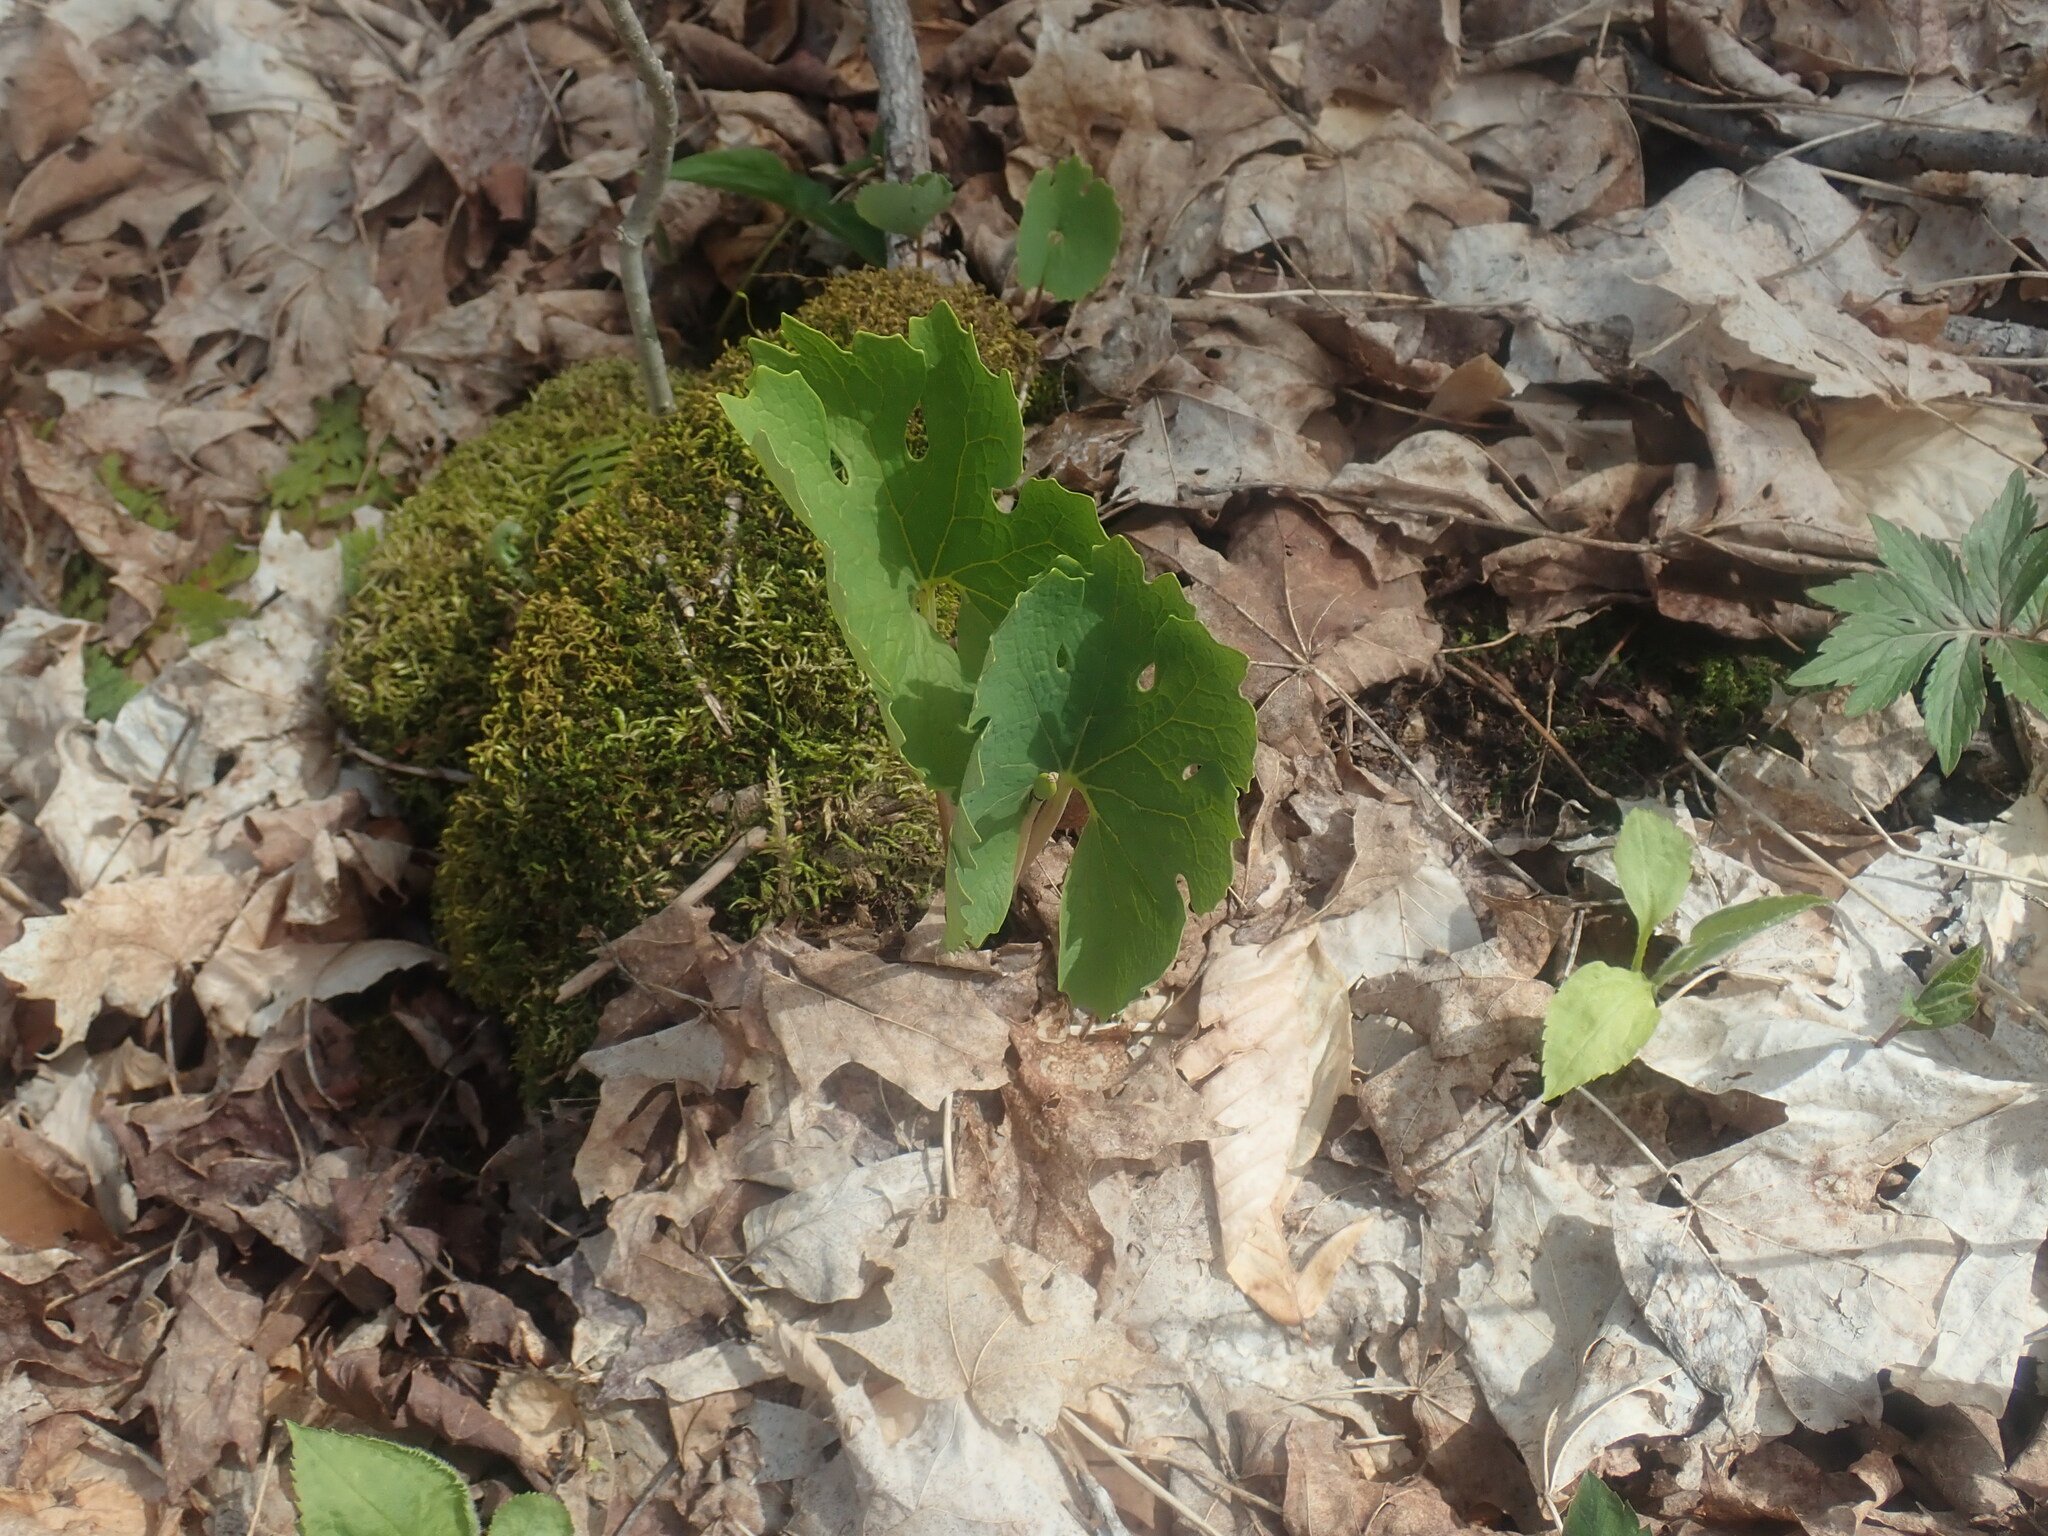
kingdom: Plantae
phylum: Tracheophyta
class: Magnoliopsida
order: Ranunculales
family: Papaveraceae
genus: Sanguinaria
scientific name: Sanguinaria canadensis
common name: Bloodroot
